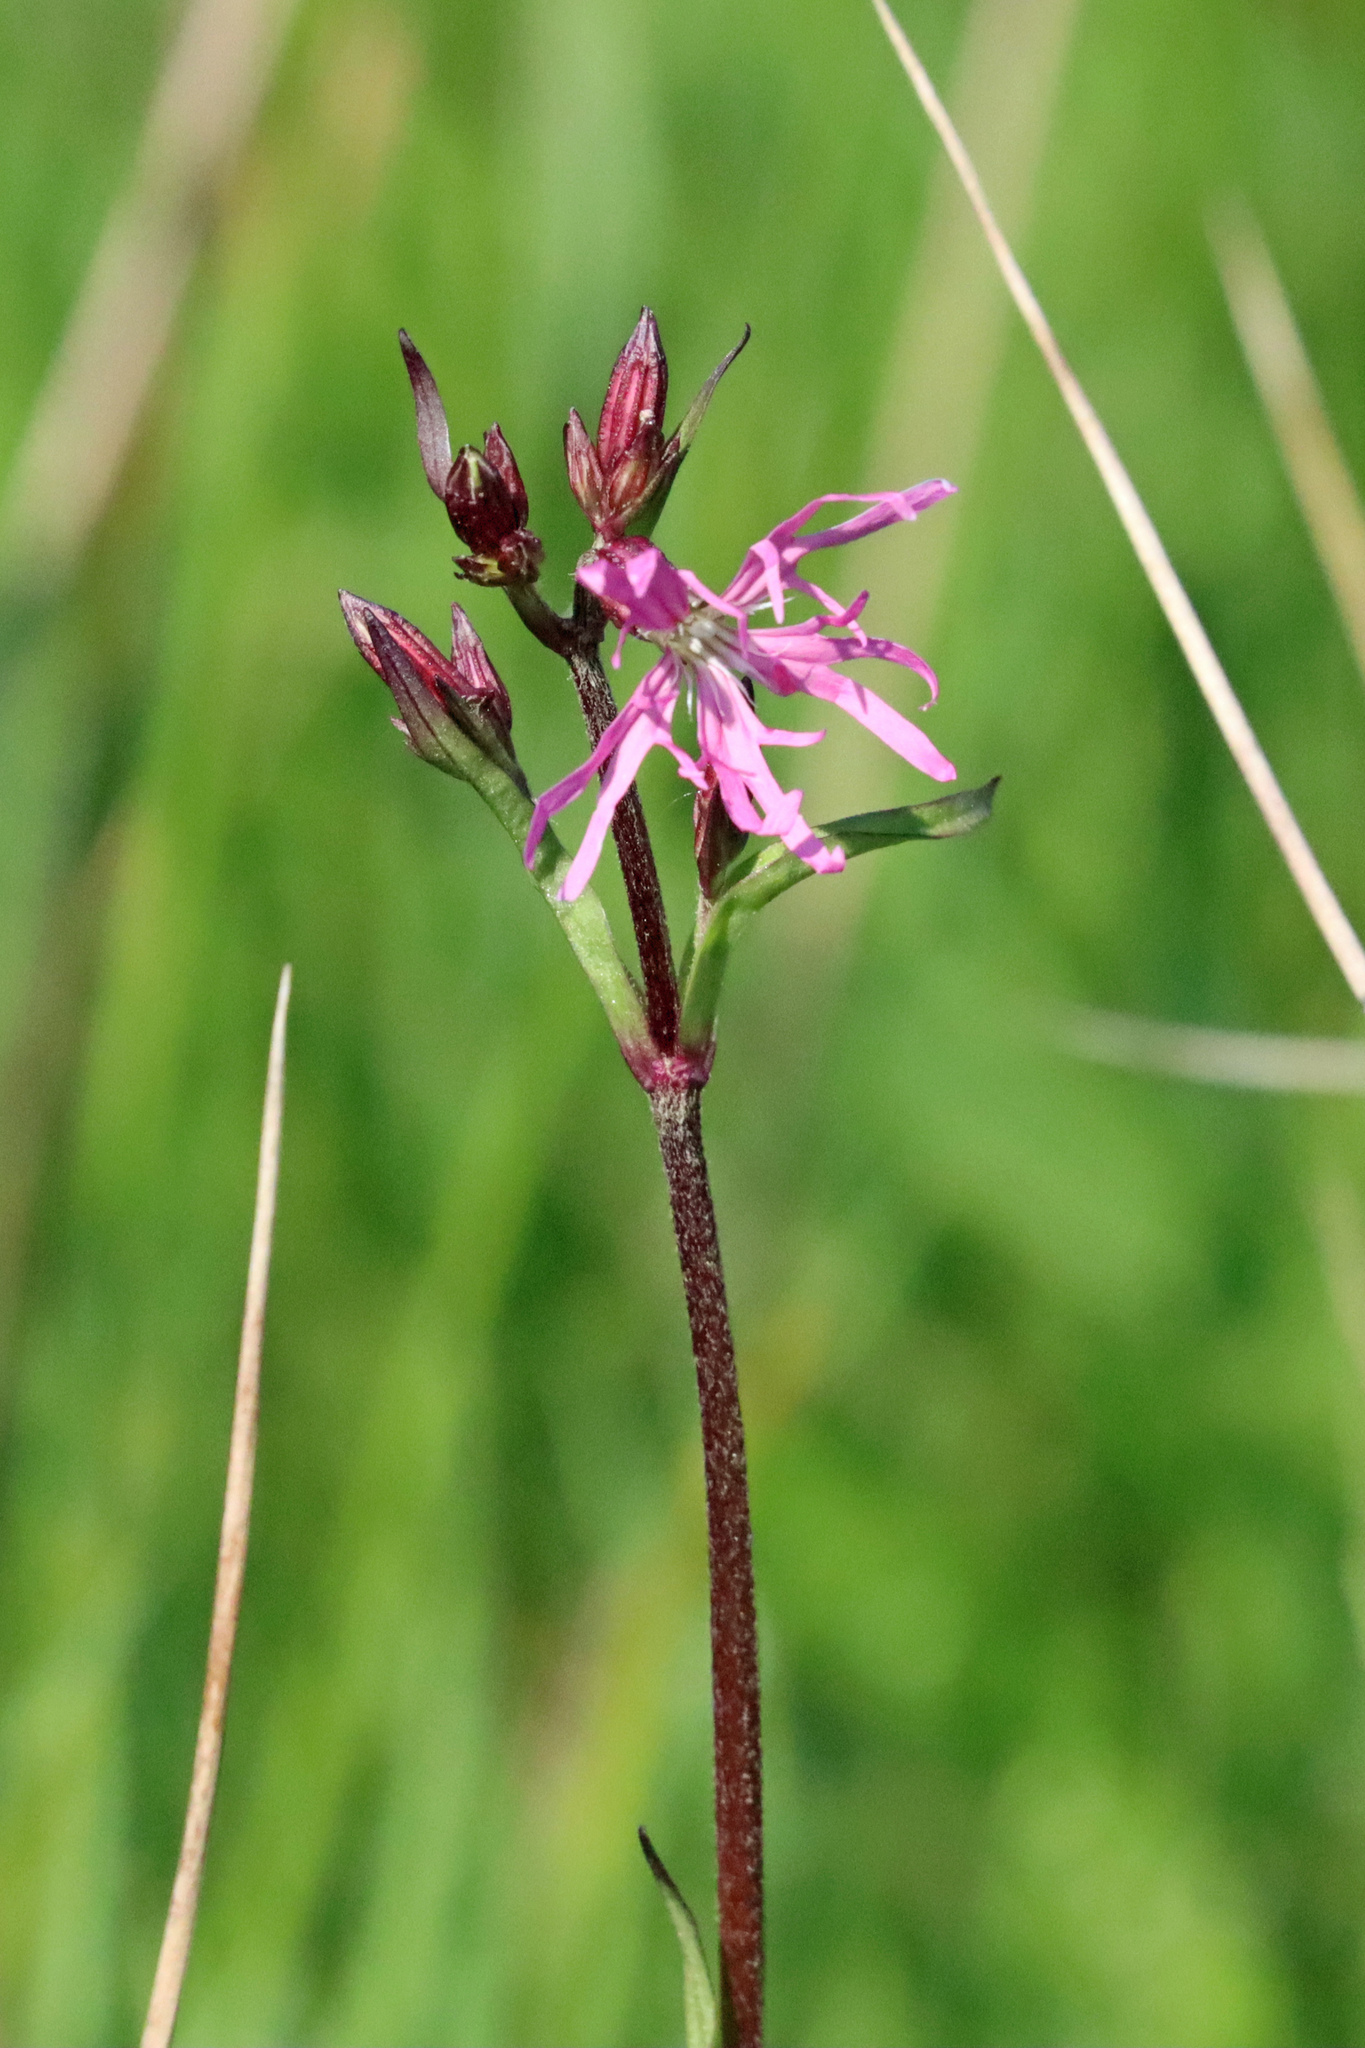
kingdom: Plantae
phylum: Tracheophyta
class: Magnoliopsida
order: Caryophyllales
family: Caryophyllaceae
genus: Silene
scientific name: Silene flos-cuculi
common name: Ragged-robin
